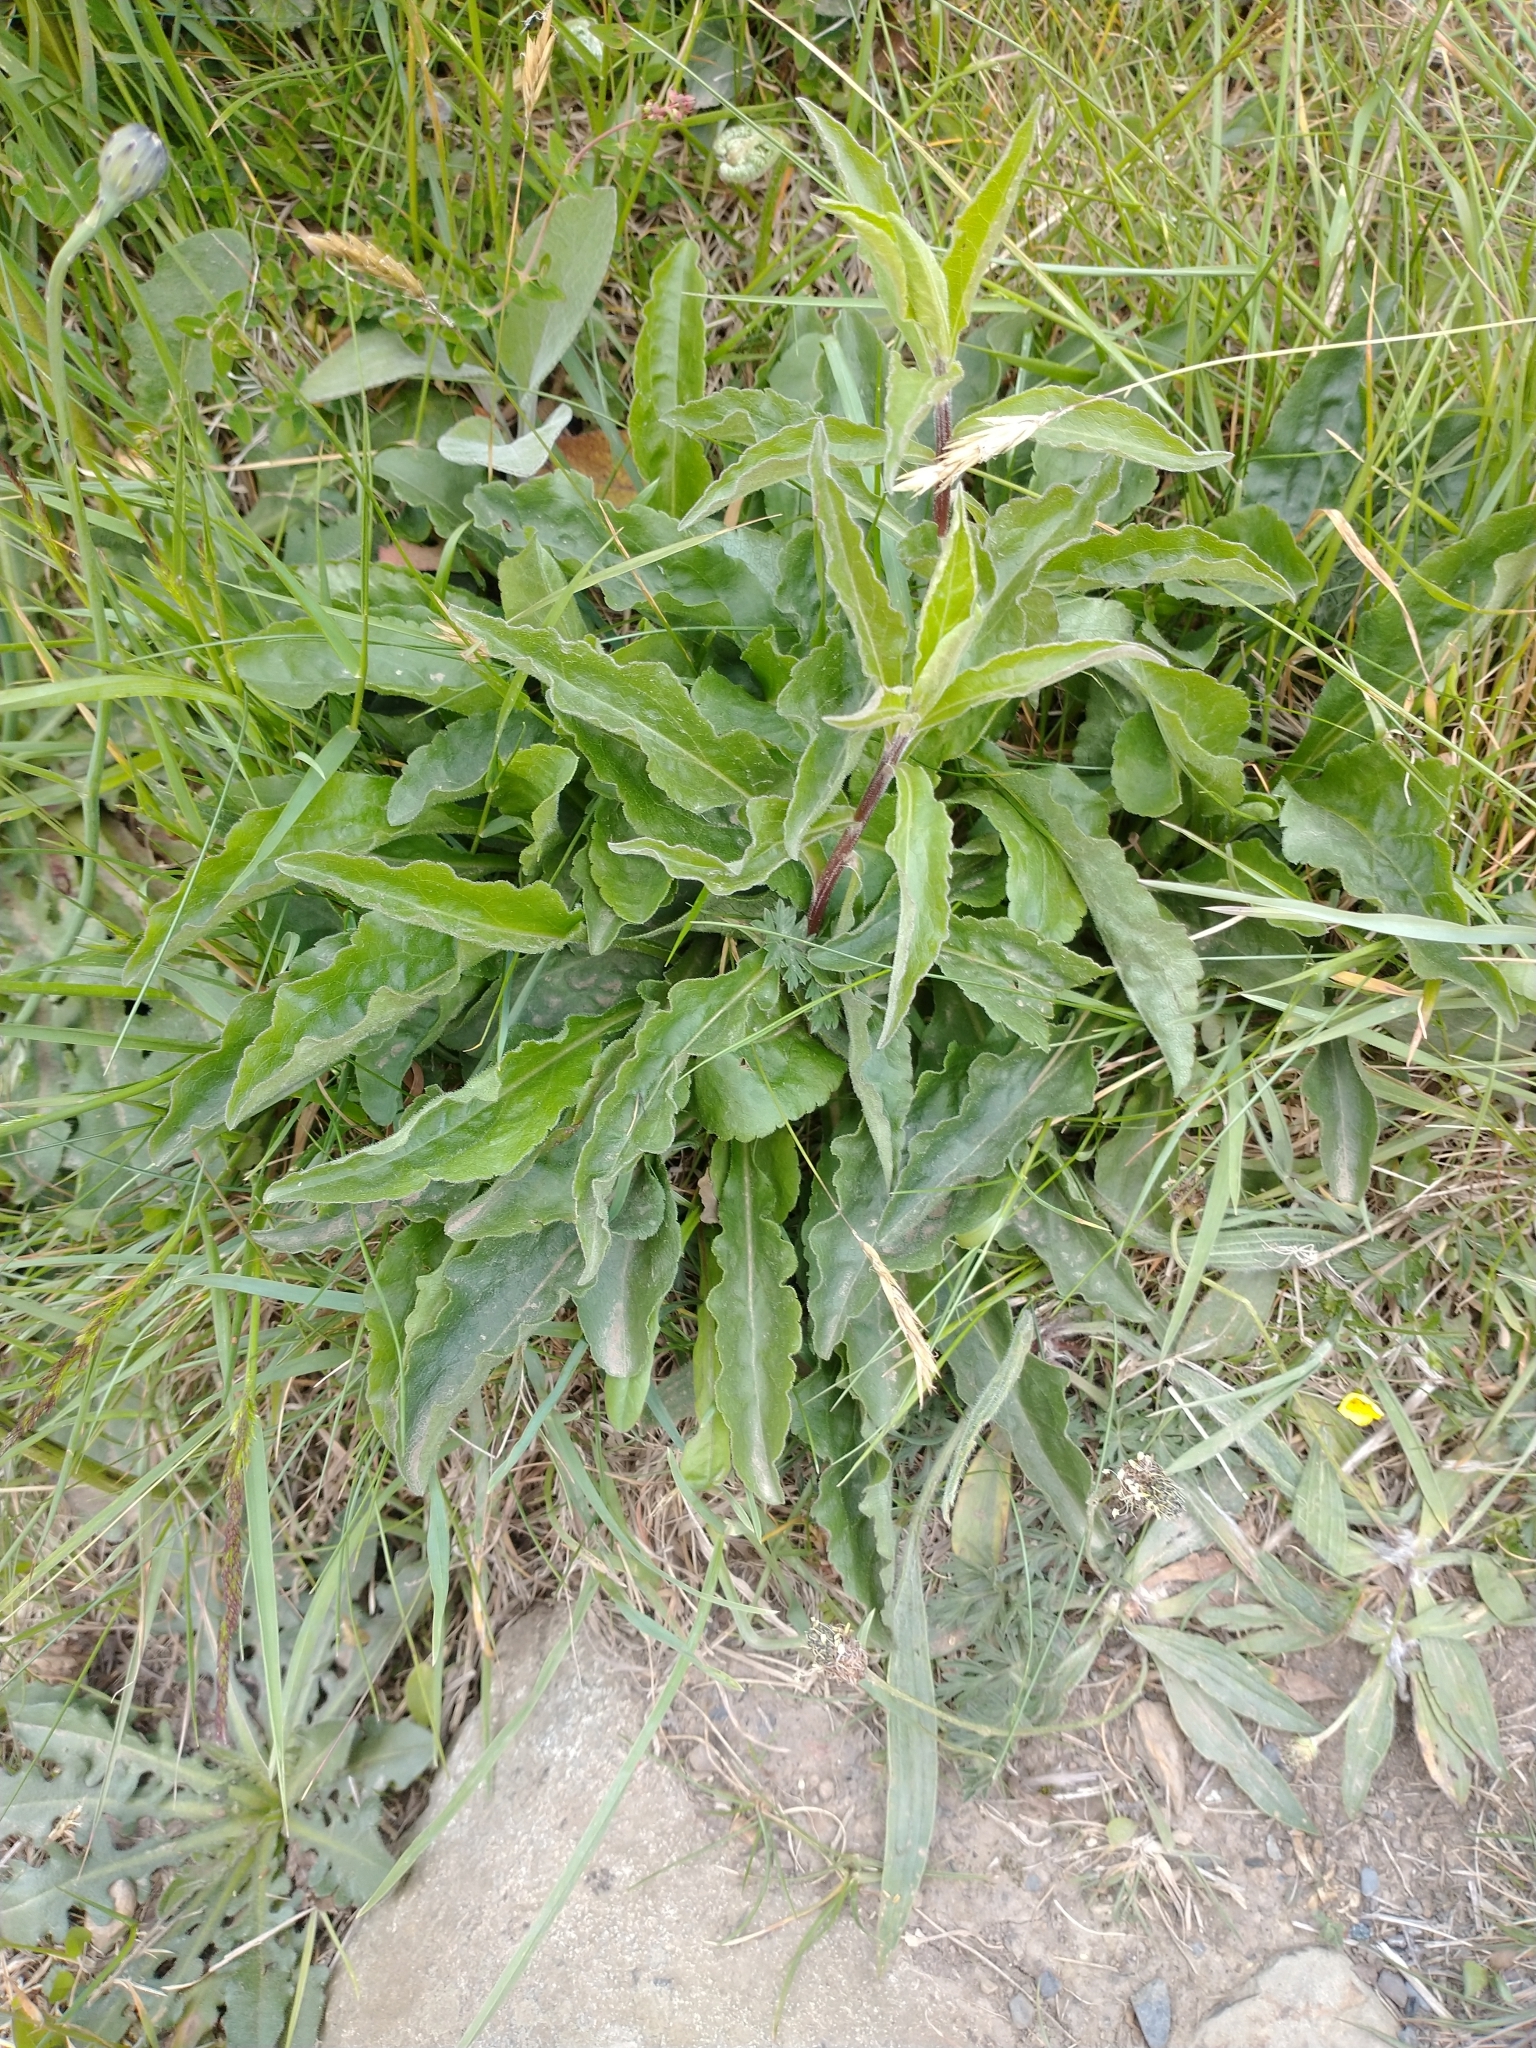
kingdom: Plantae
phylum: Tracheophyta
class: Magnoliopsida
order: Asterales
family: Asteraceae
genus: Solidago
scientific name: Solidago virgaurea
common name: Goldenrod
